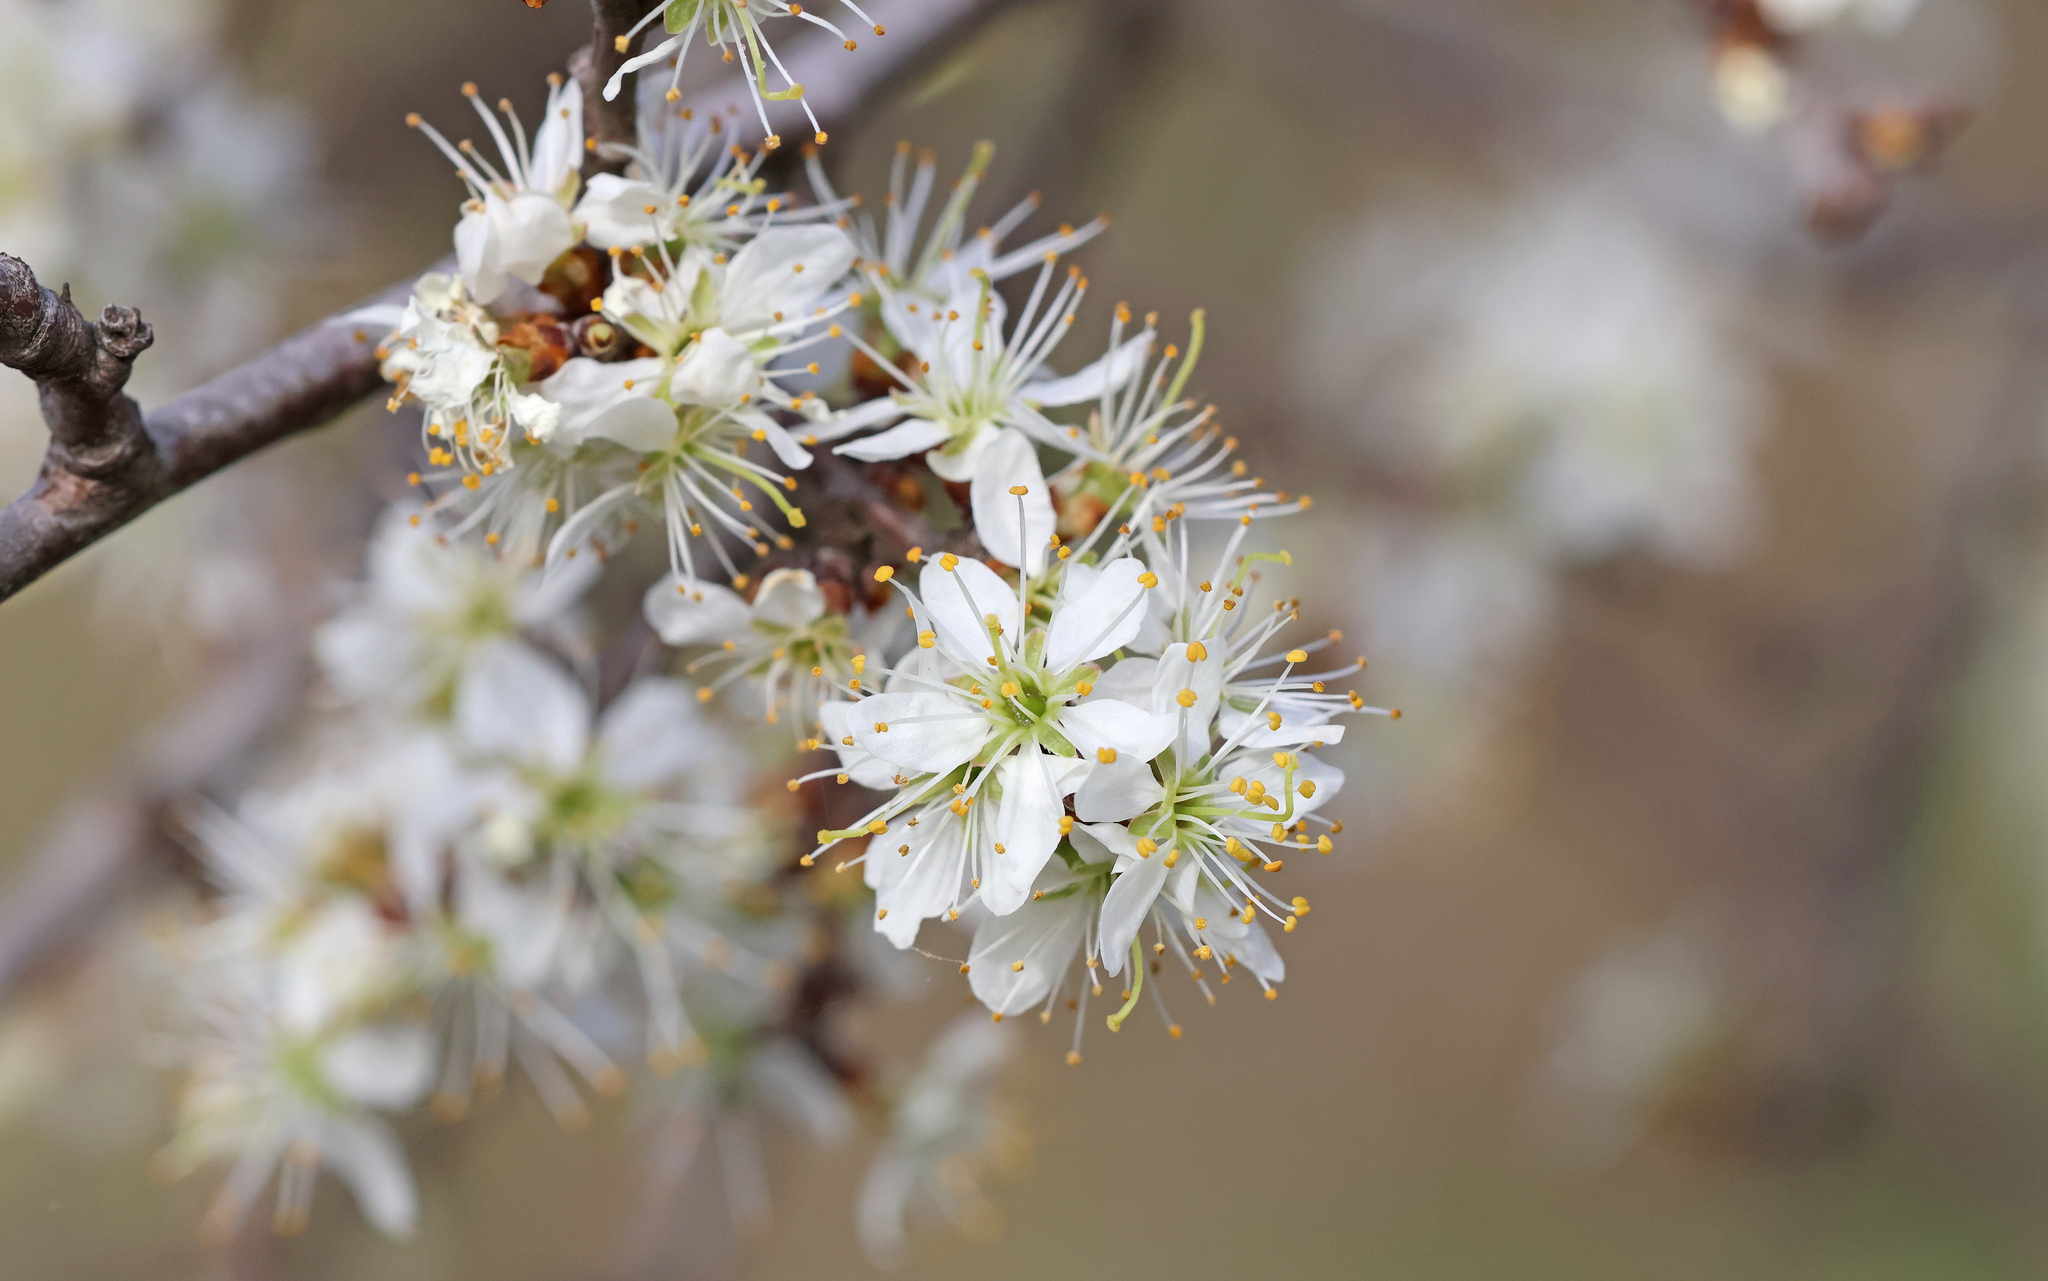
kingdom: Plantae
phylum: Tracheophyta
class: Magnoliopsida
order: Rosales
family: Rosaceae
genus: Prunus
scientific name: Prunus spinosa
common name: Blackthorn
